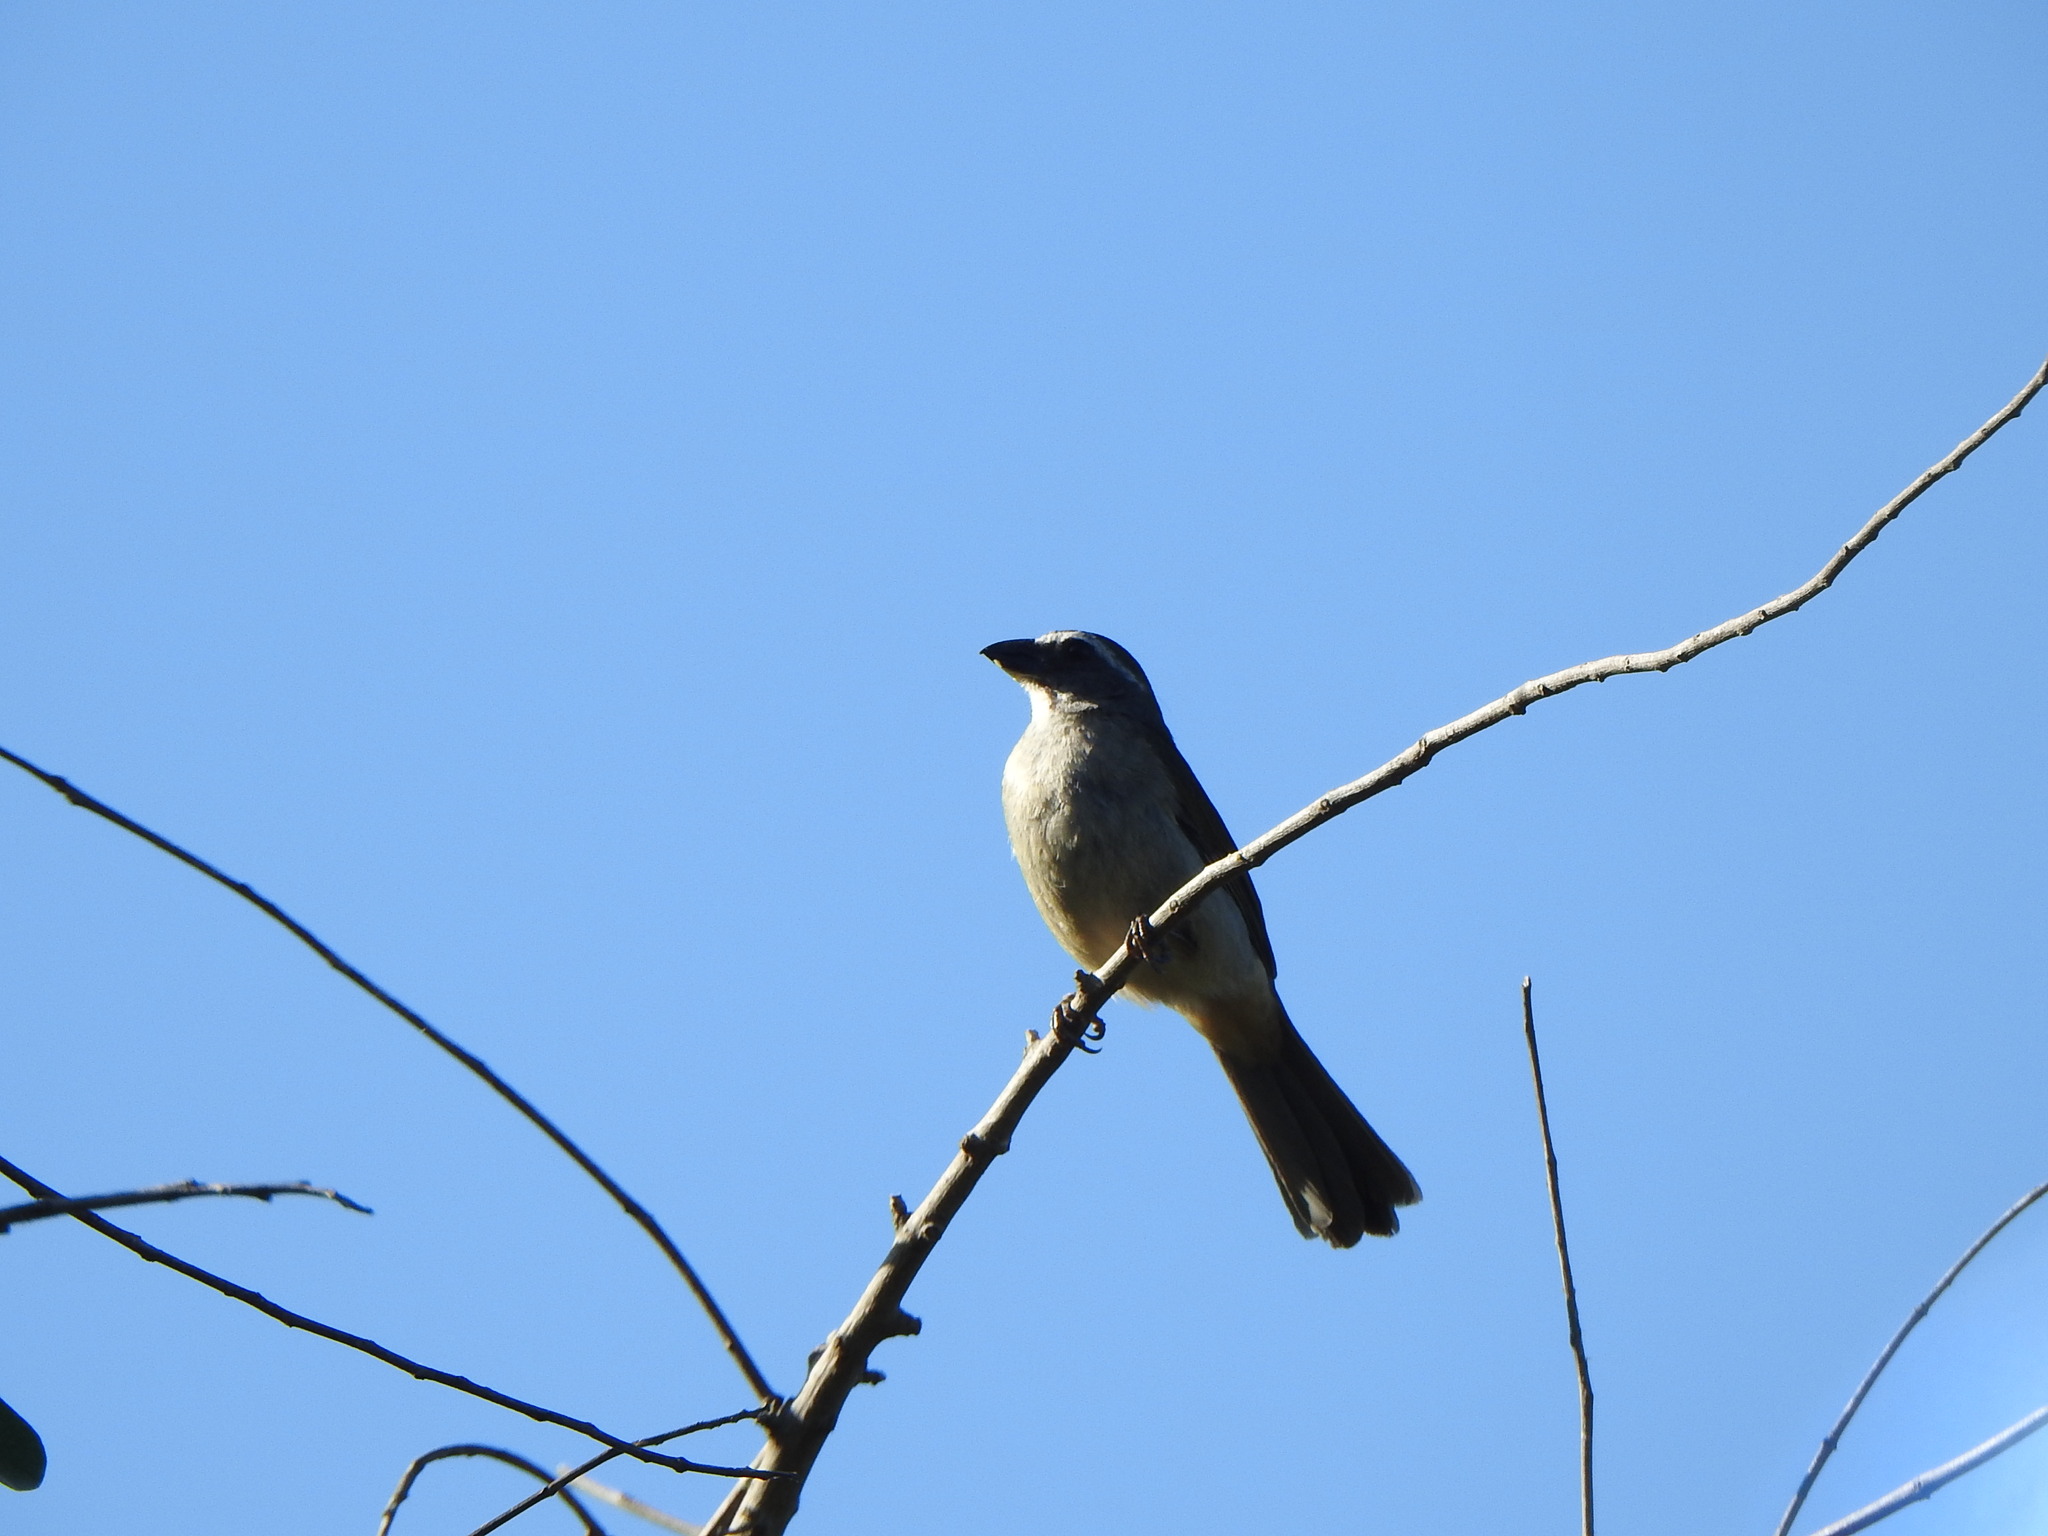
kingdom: Animalia
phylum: Chordata
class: Aves
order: Passeriformes
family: Thraupidae
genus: Saltator
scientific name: Saltator similis
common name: Green-winged saltator
